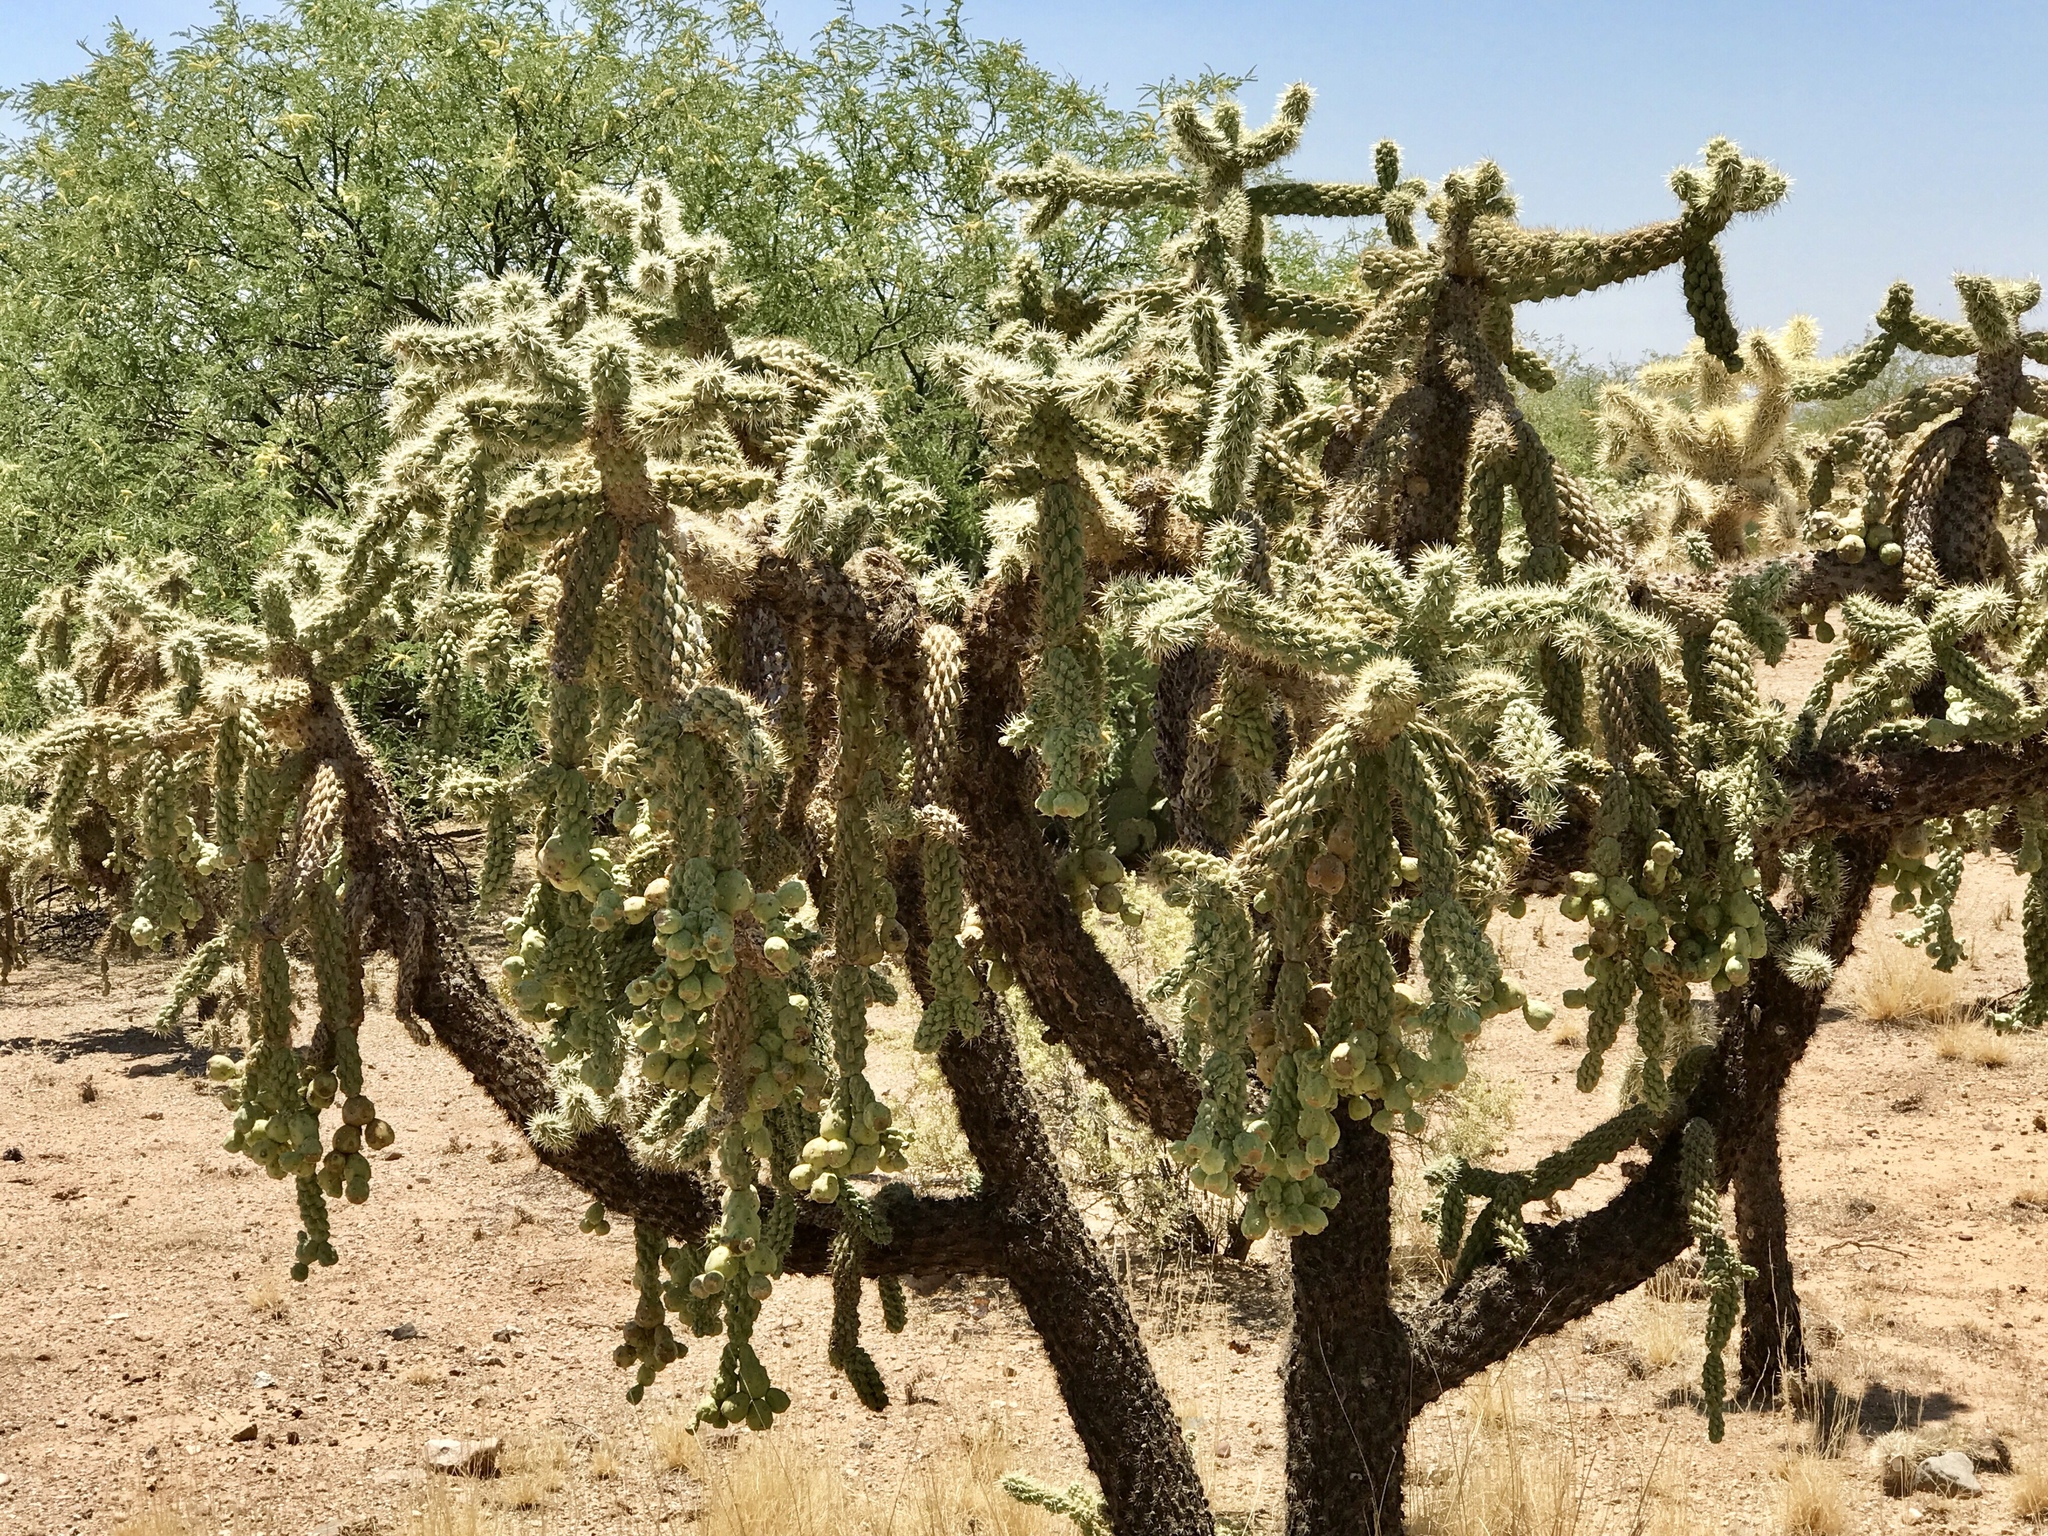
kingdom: Plantae
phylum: Tracheophyta
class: Magnoliopsida
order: Caryophyllales
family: Cactaceae
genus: Cylindropuntia
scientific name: Cylindropuntia fulgida
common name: Jumping cholla
